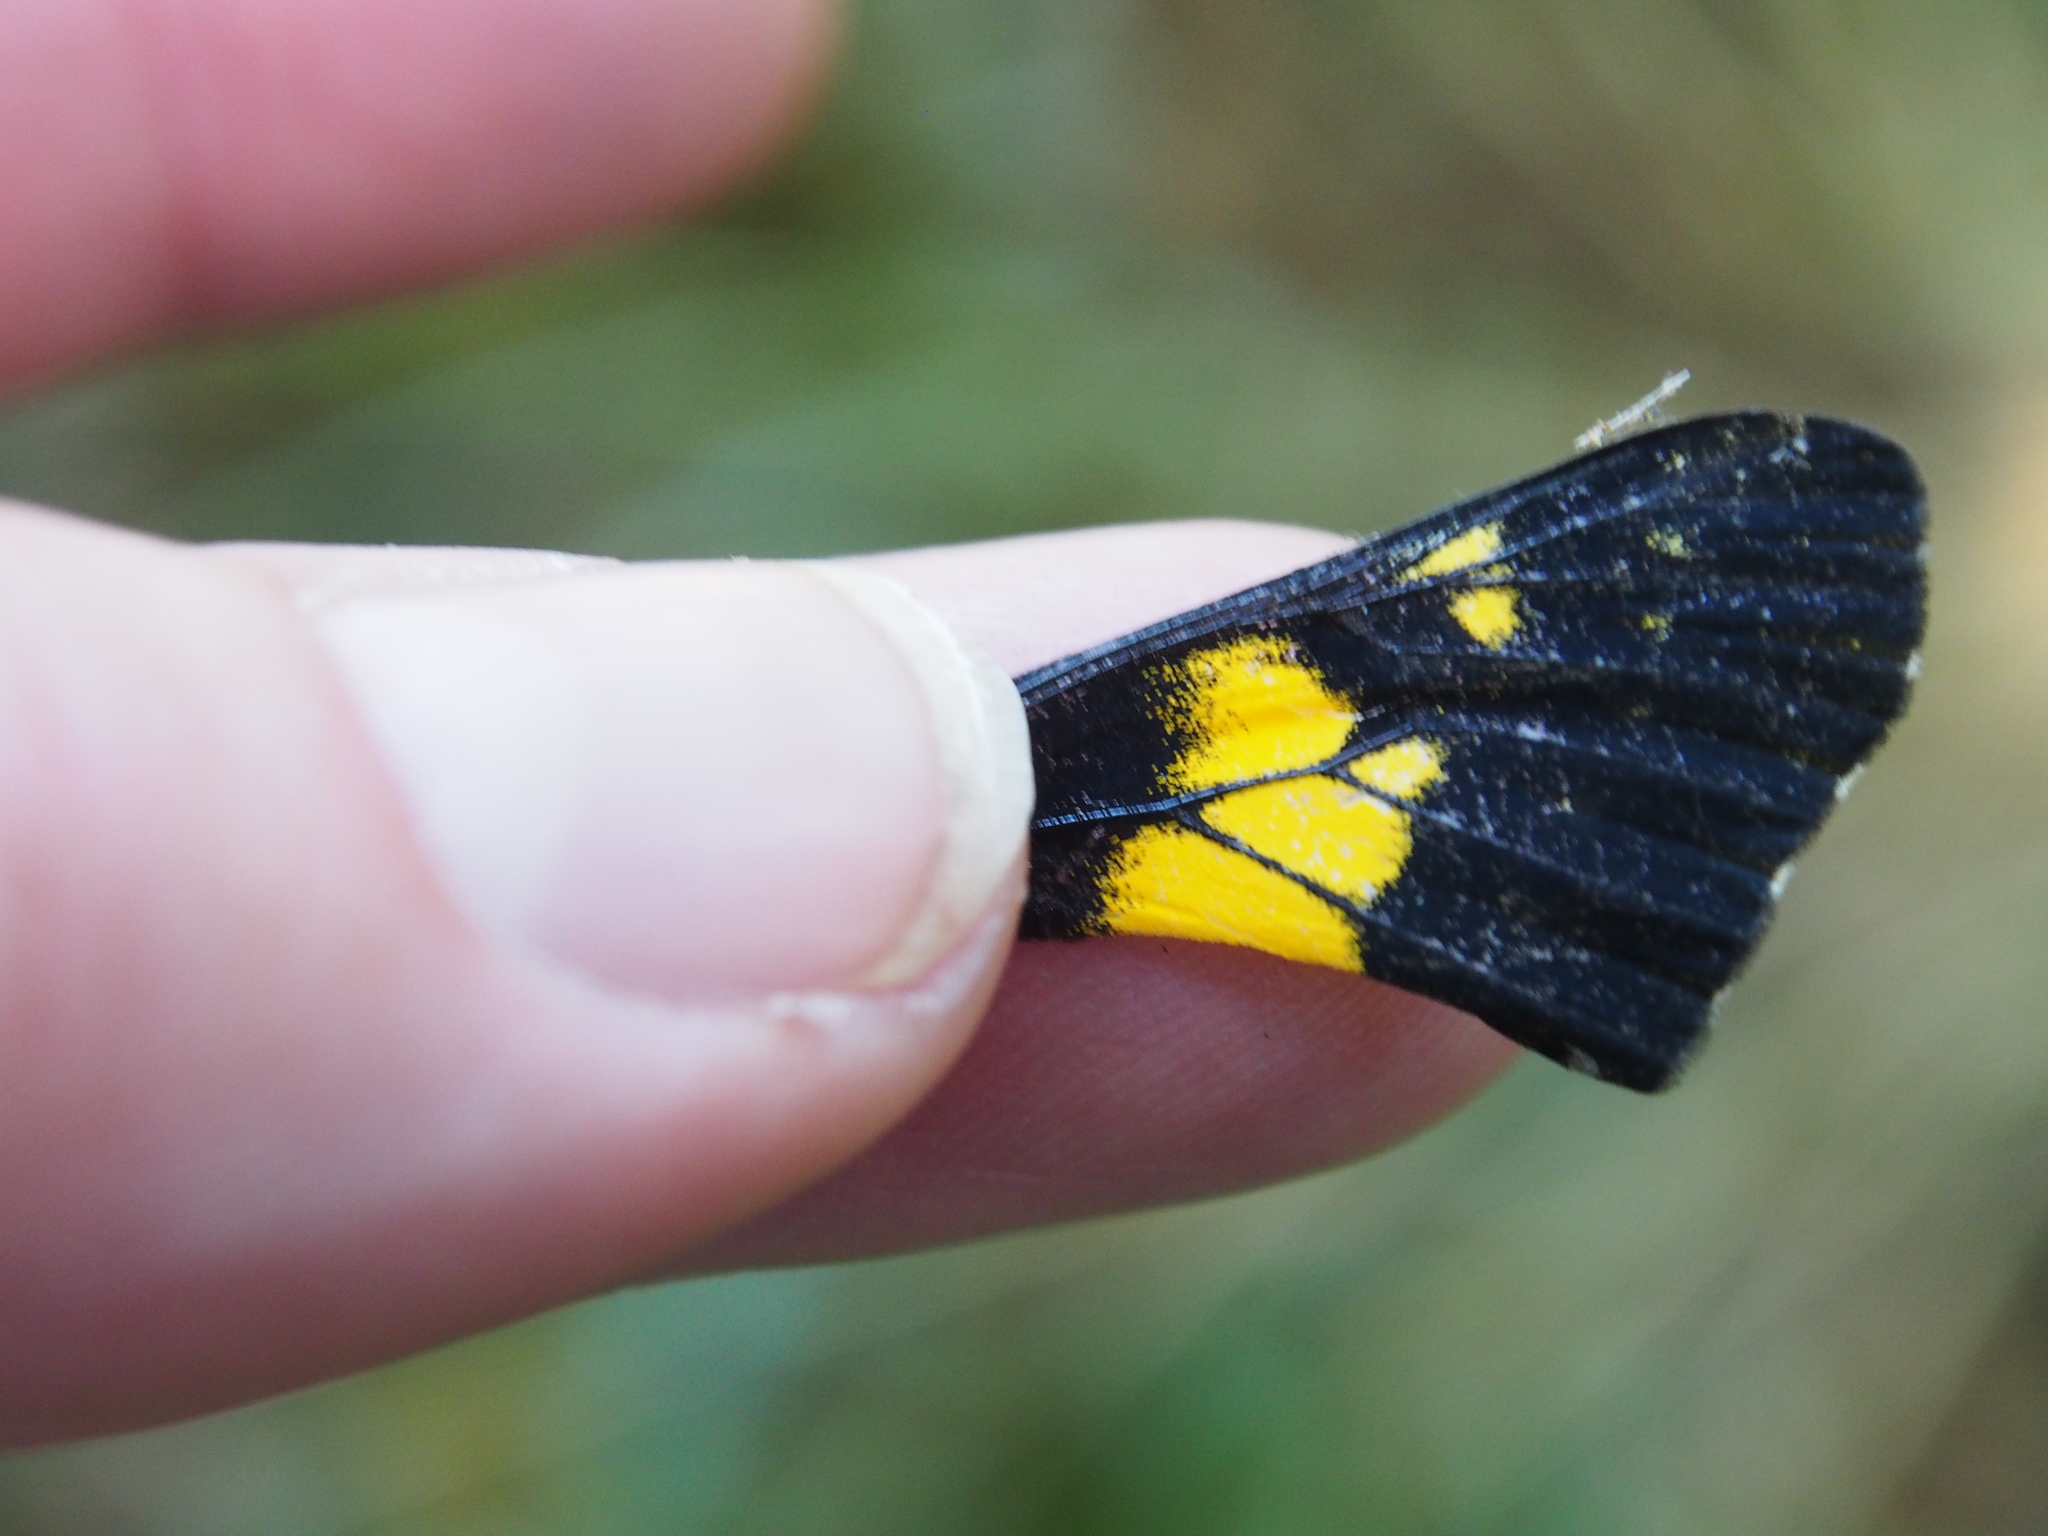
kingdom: Animalia
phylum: Arthropoda
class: Insecta
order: Lepidoptera
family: Pieridae
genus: Archonias
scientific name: Archonias teutila
